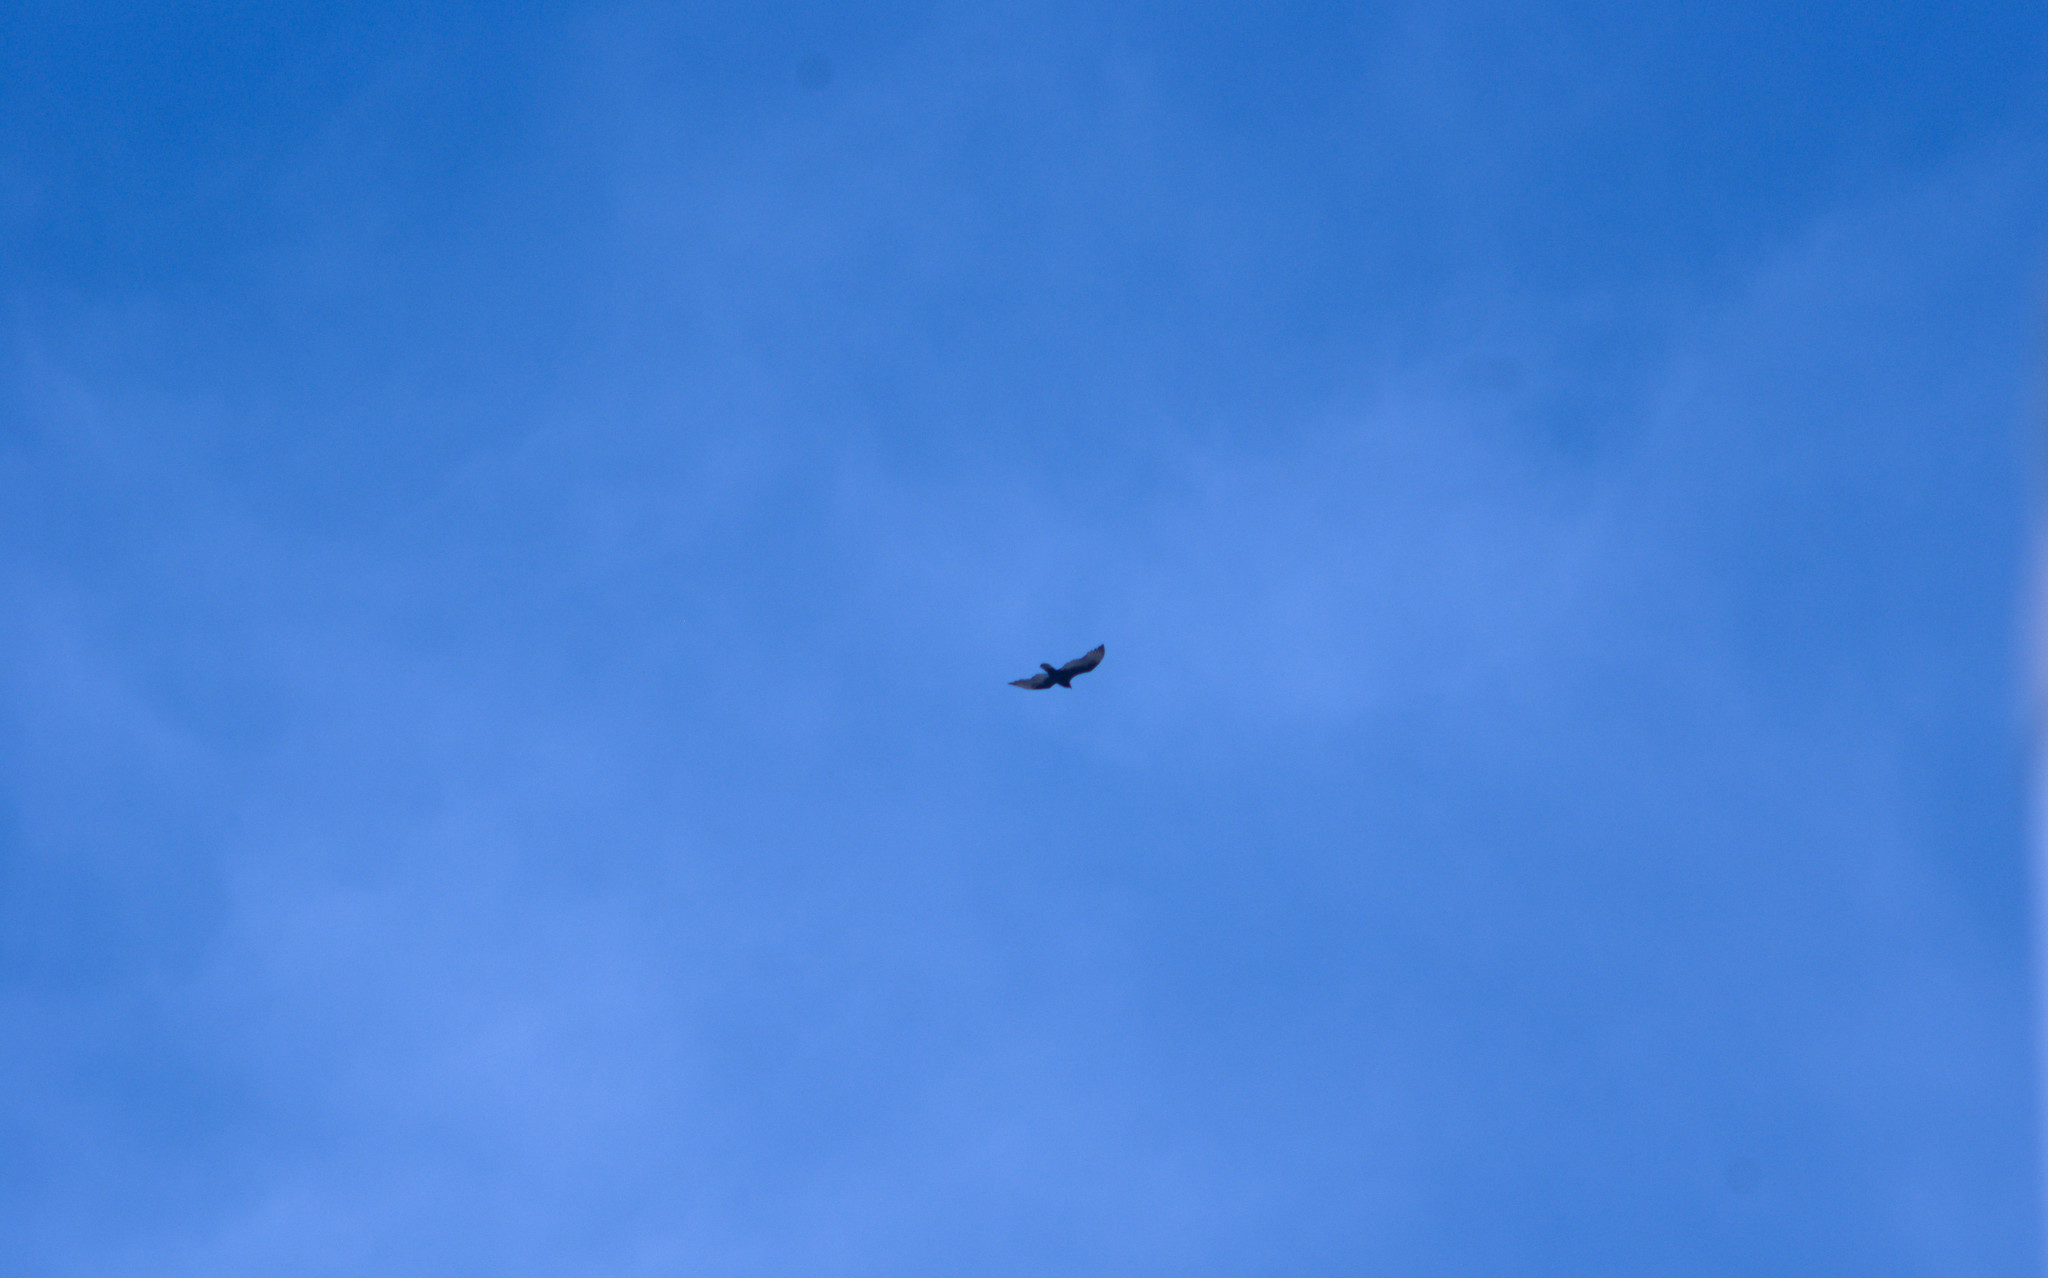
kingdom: Animalia
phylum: Chordata
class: Aves
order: Accipitriformes
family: Cathartidae
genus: Cathartes
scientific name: Cathartes aura
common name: Turkey vulture
